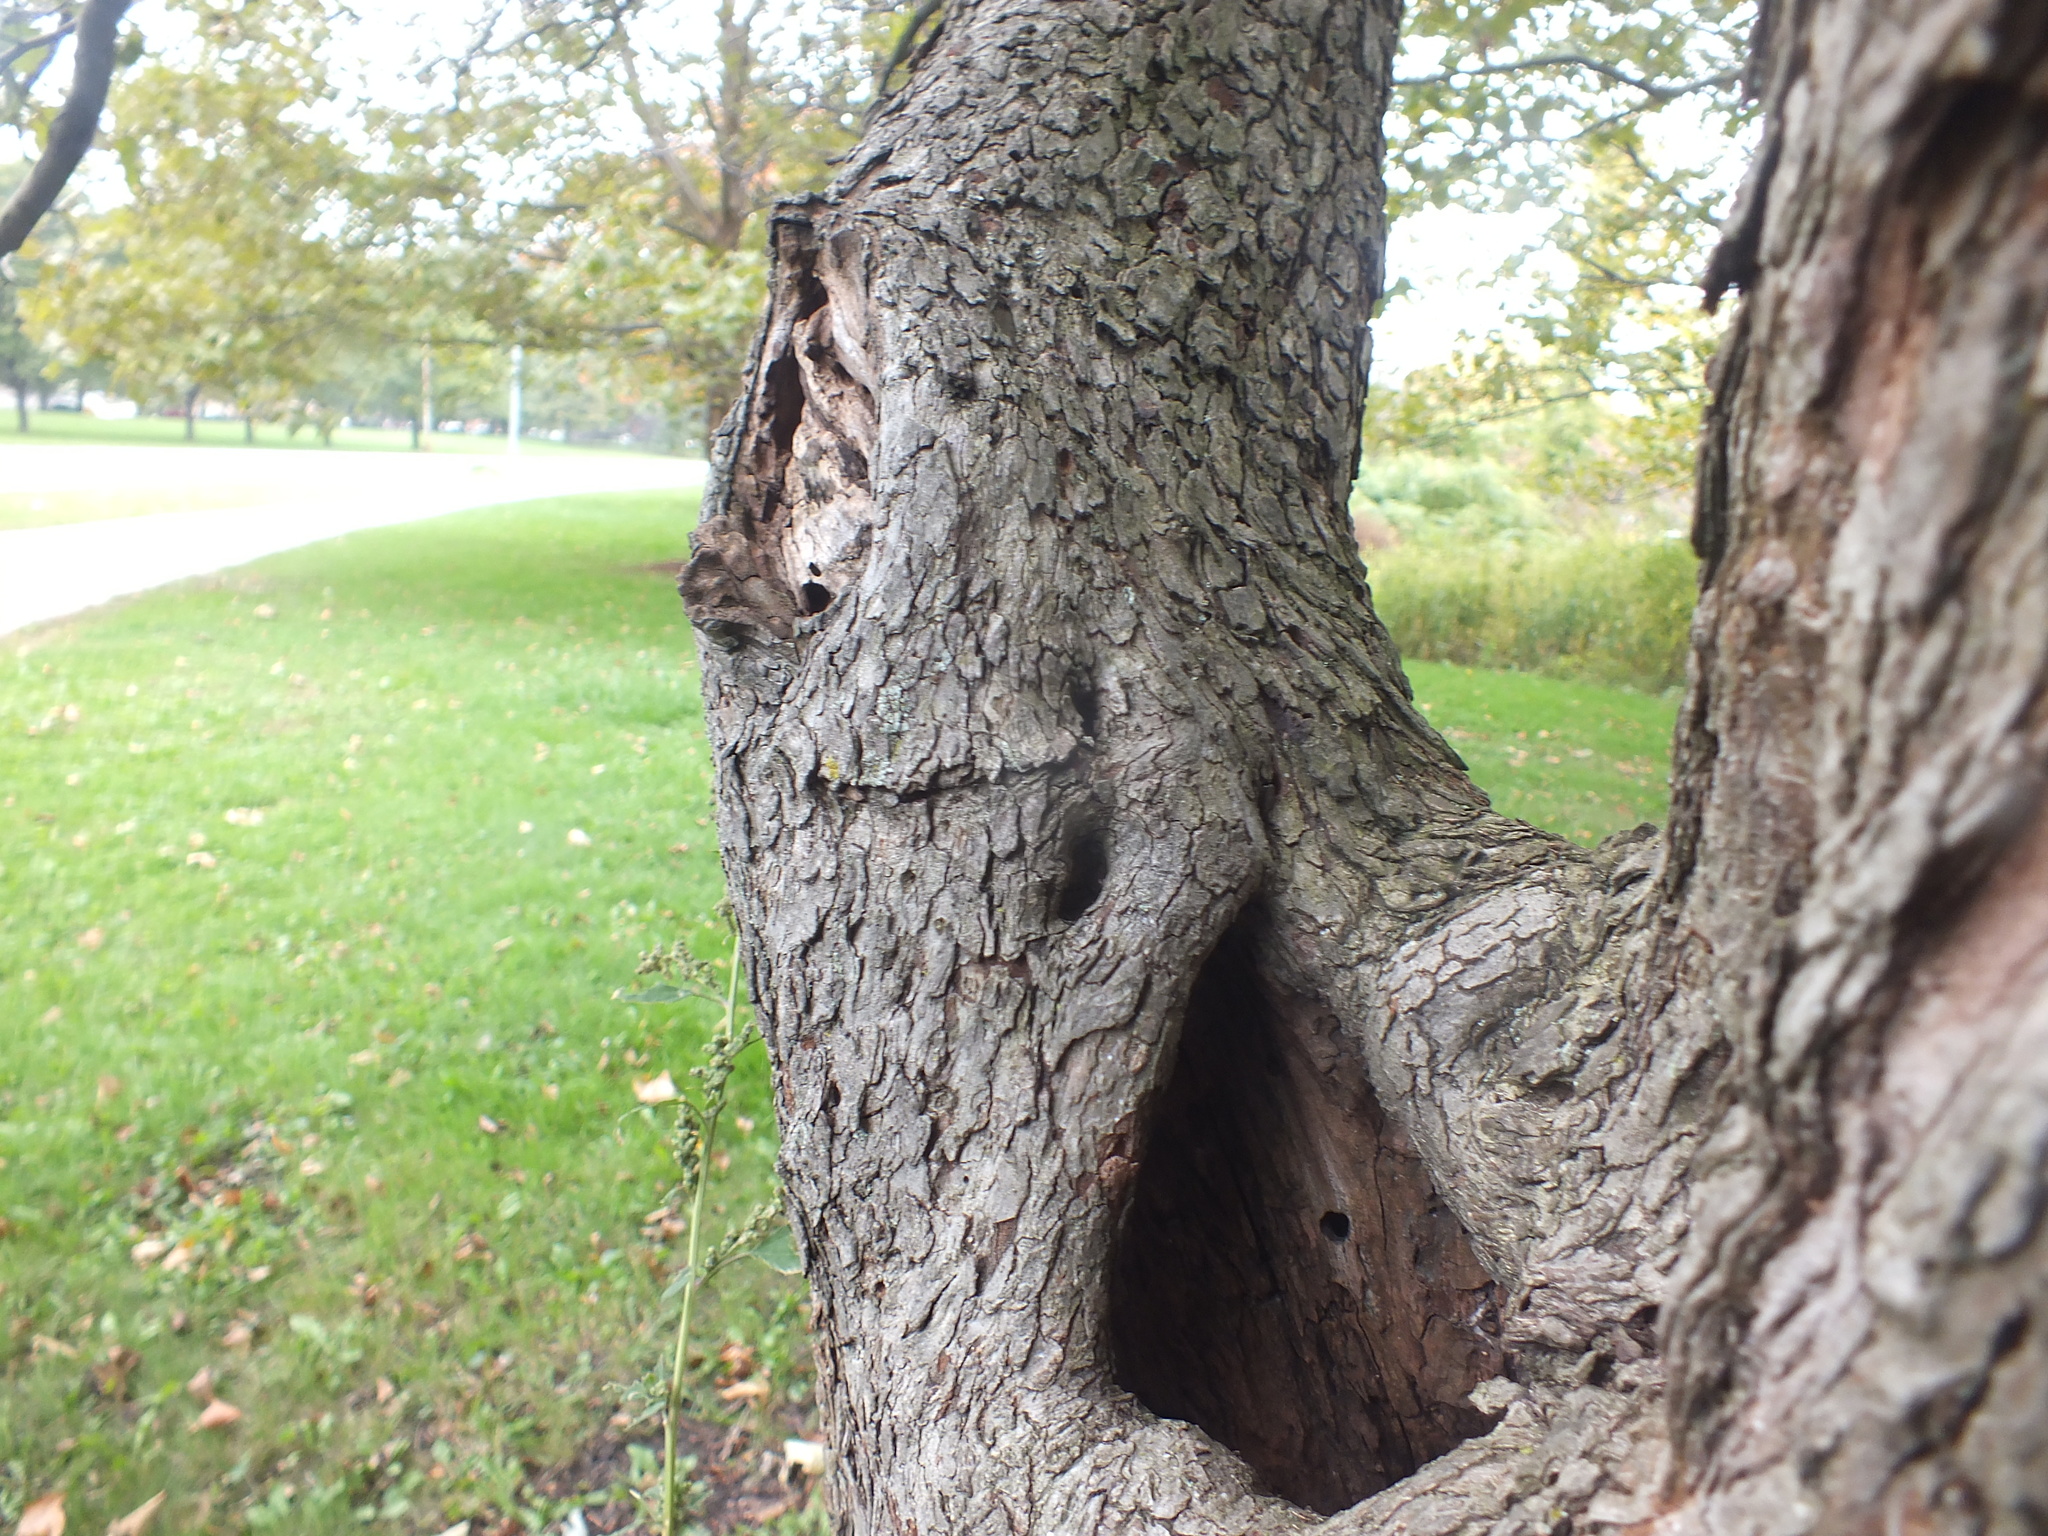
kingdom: Animalia
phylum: Chordata
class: Aves
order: Piciformes
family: Picidae
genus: Sphyrapicus
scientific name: Sphyrapicus varius
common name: Yellow-bellied sapsucker
